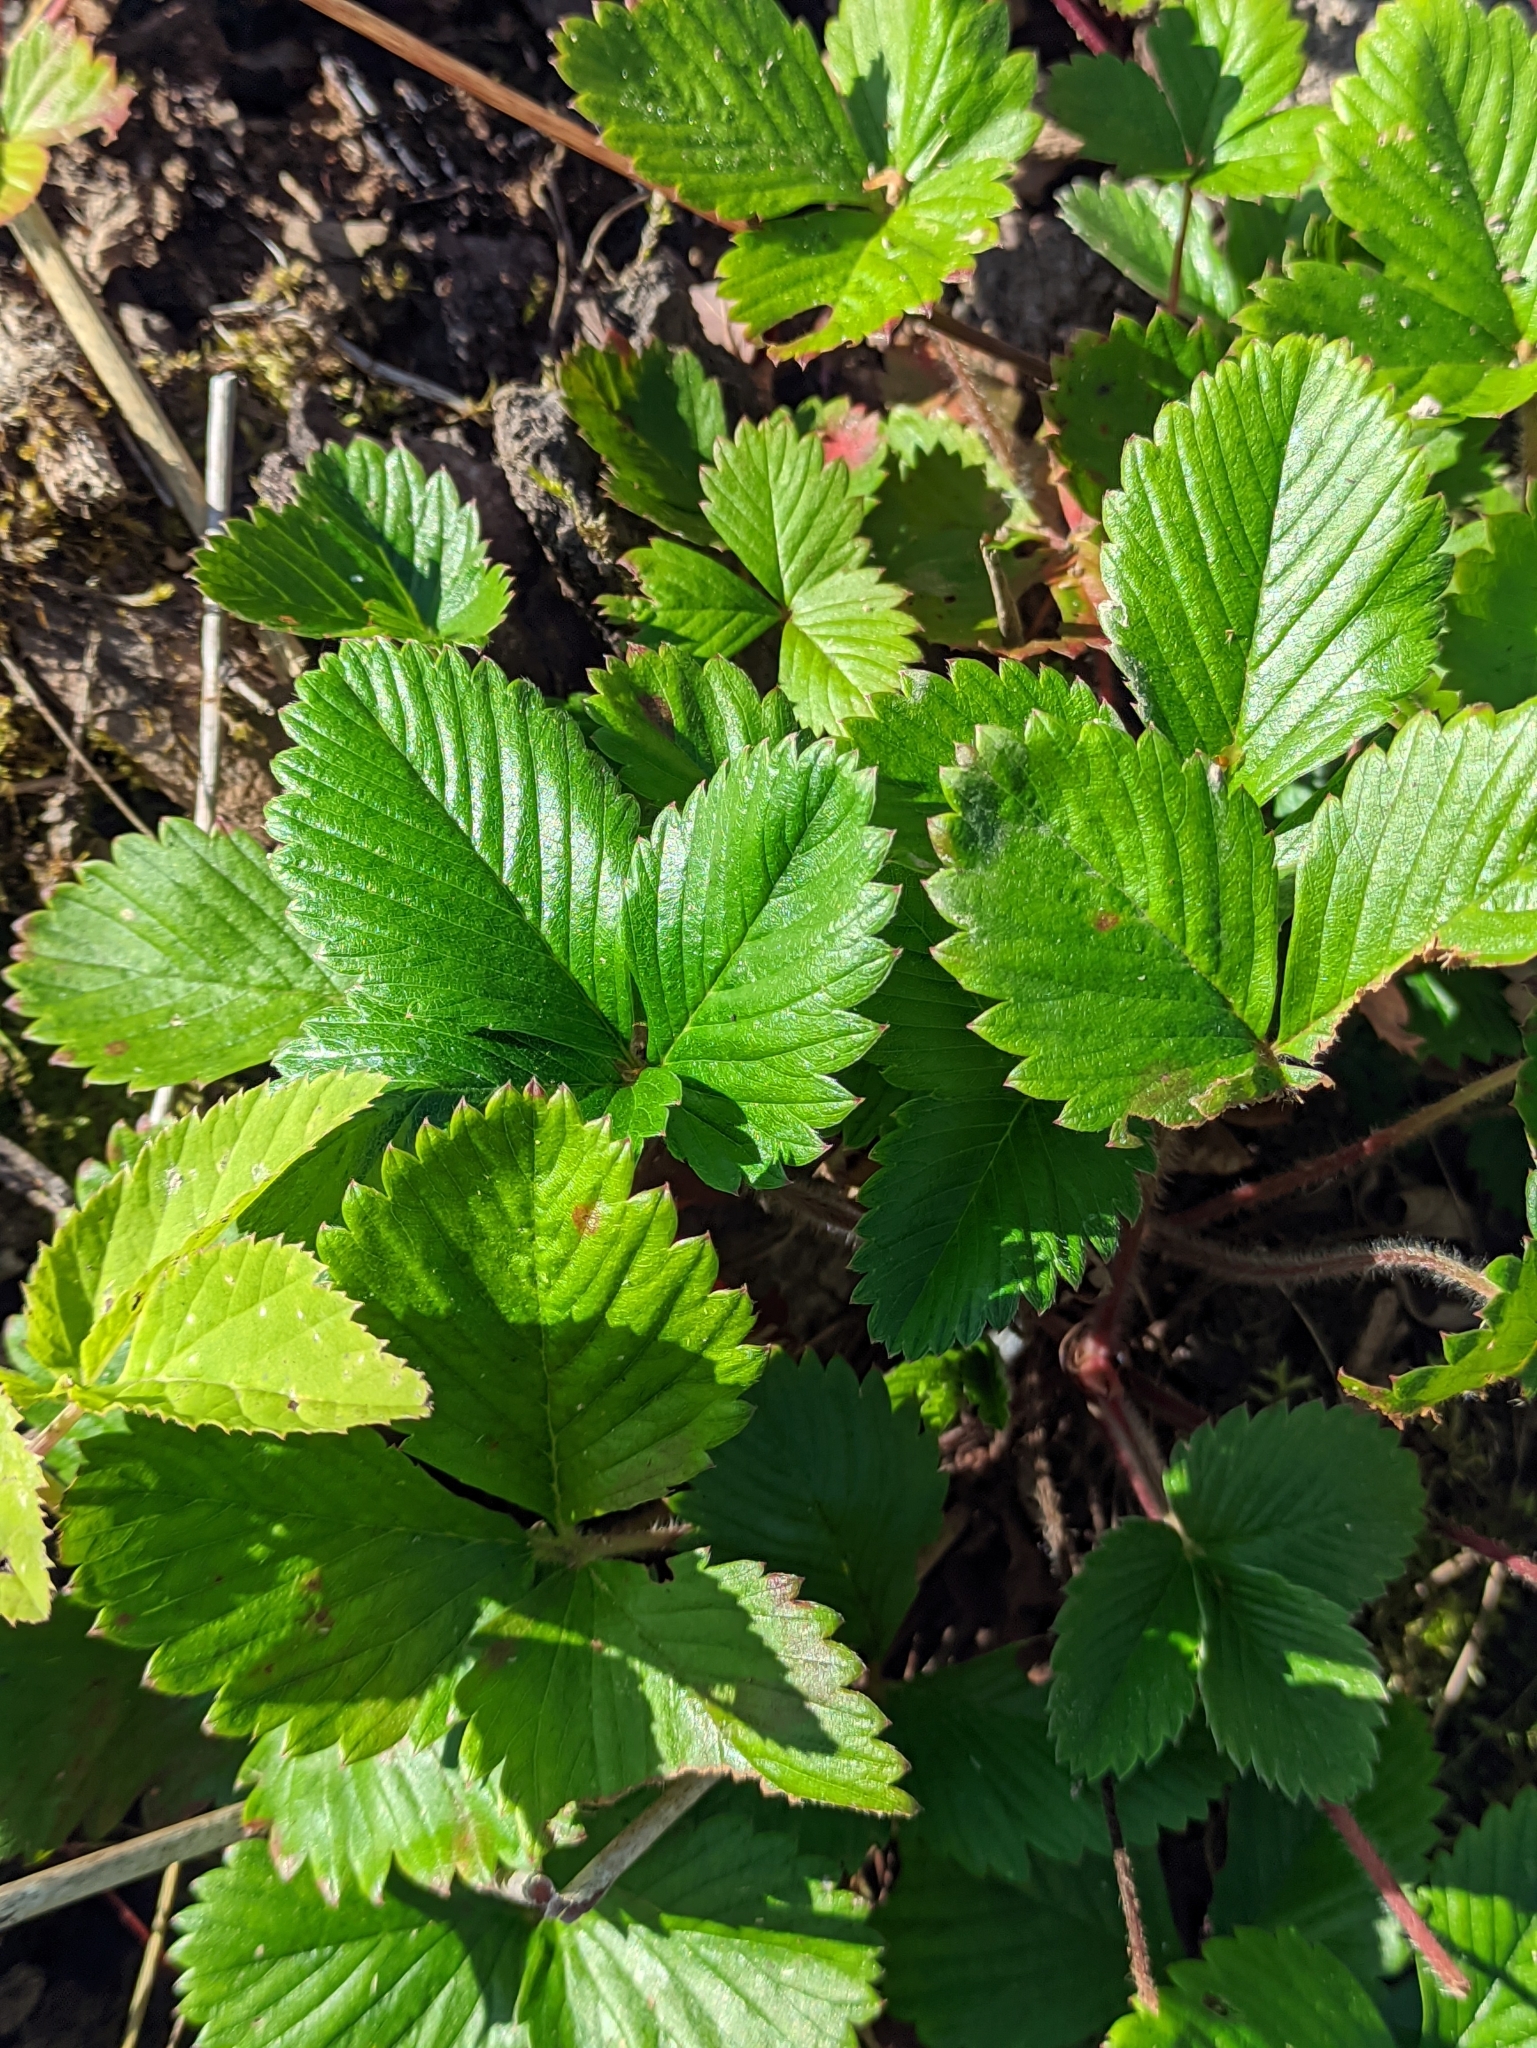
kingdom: Plantae
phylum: Tracheophyta
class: Magnoliopsida
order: Rosales
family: Rosaceae
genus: Fragaria
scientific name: Fragaria vesca
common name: Wild strawberry
